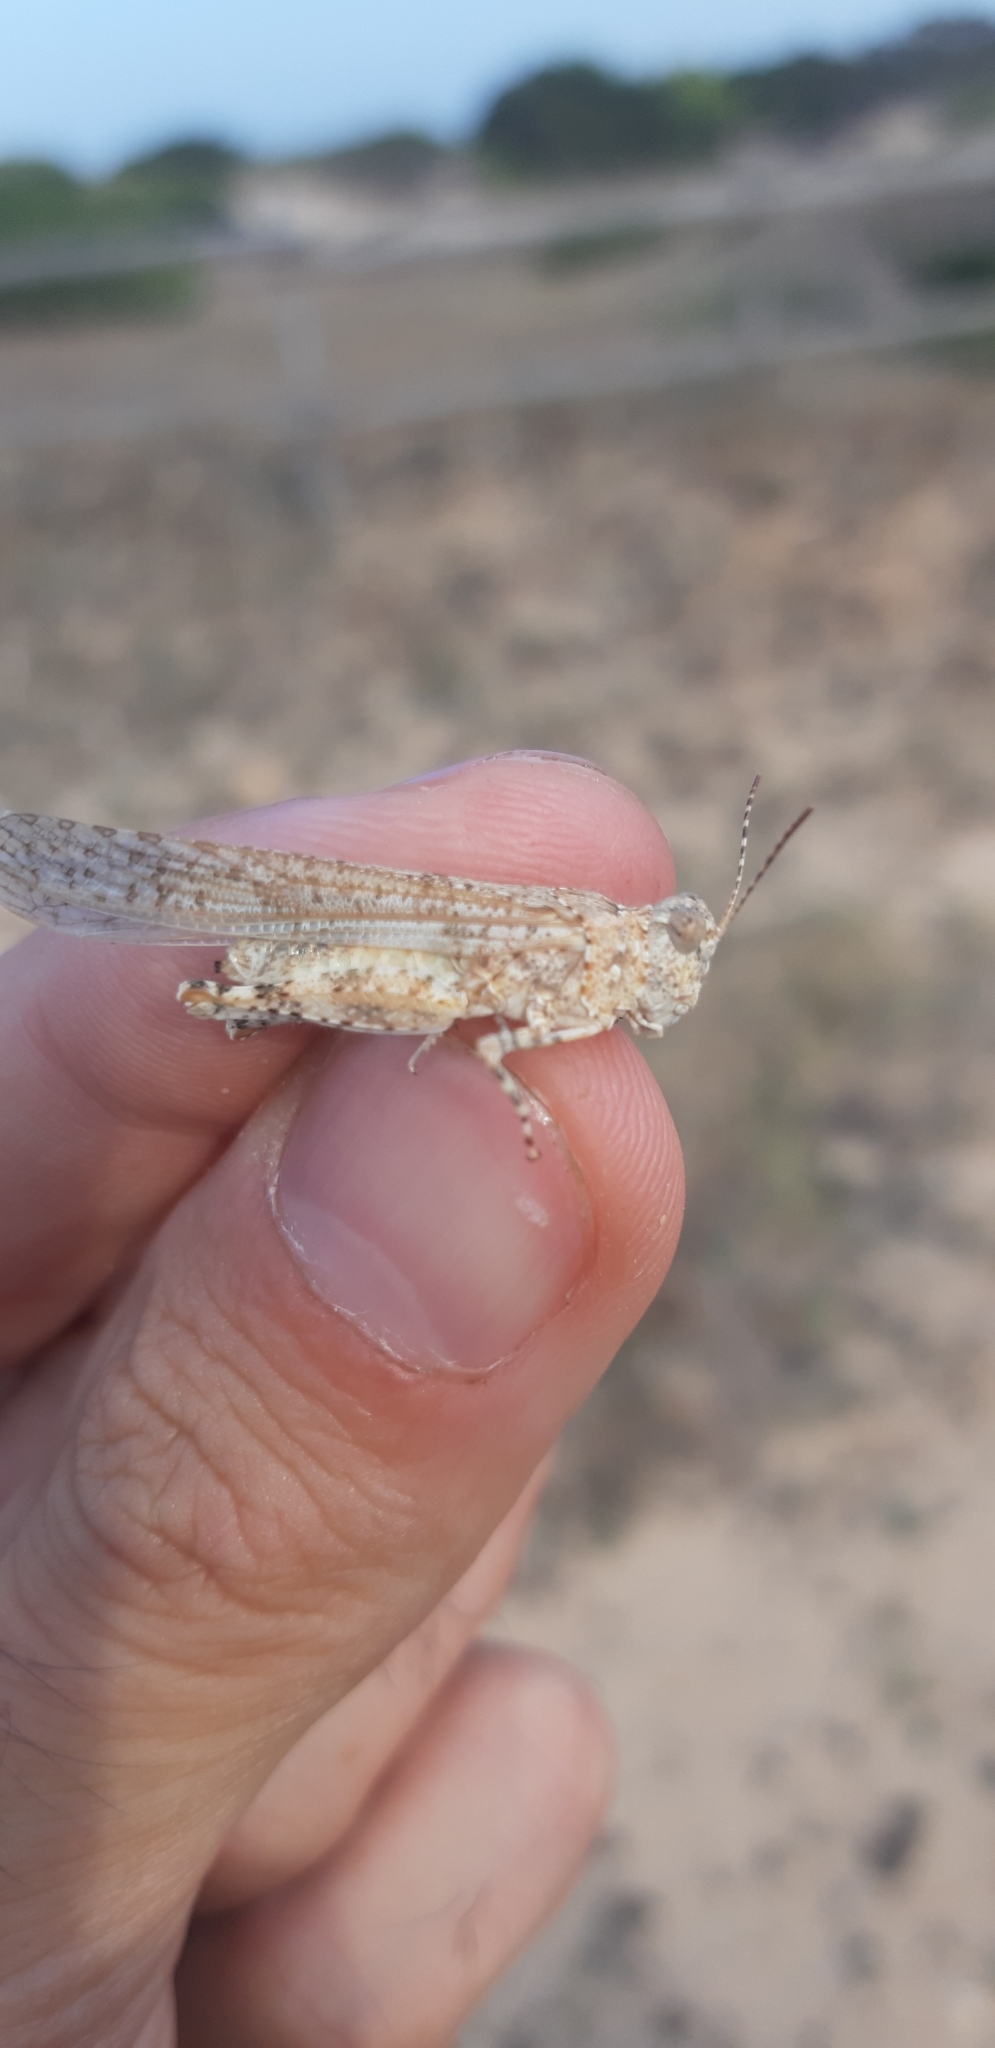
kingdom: Animalia
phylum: Arthropoda
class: Insecta
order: Orthoptera
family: Acrididae
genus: Sphingonotus
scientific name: Sphingonotus personatus
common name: Italian sand grasshopper
